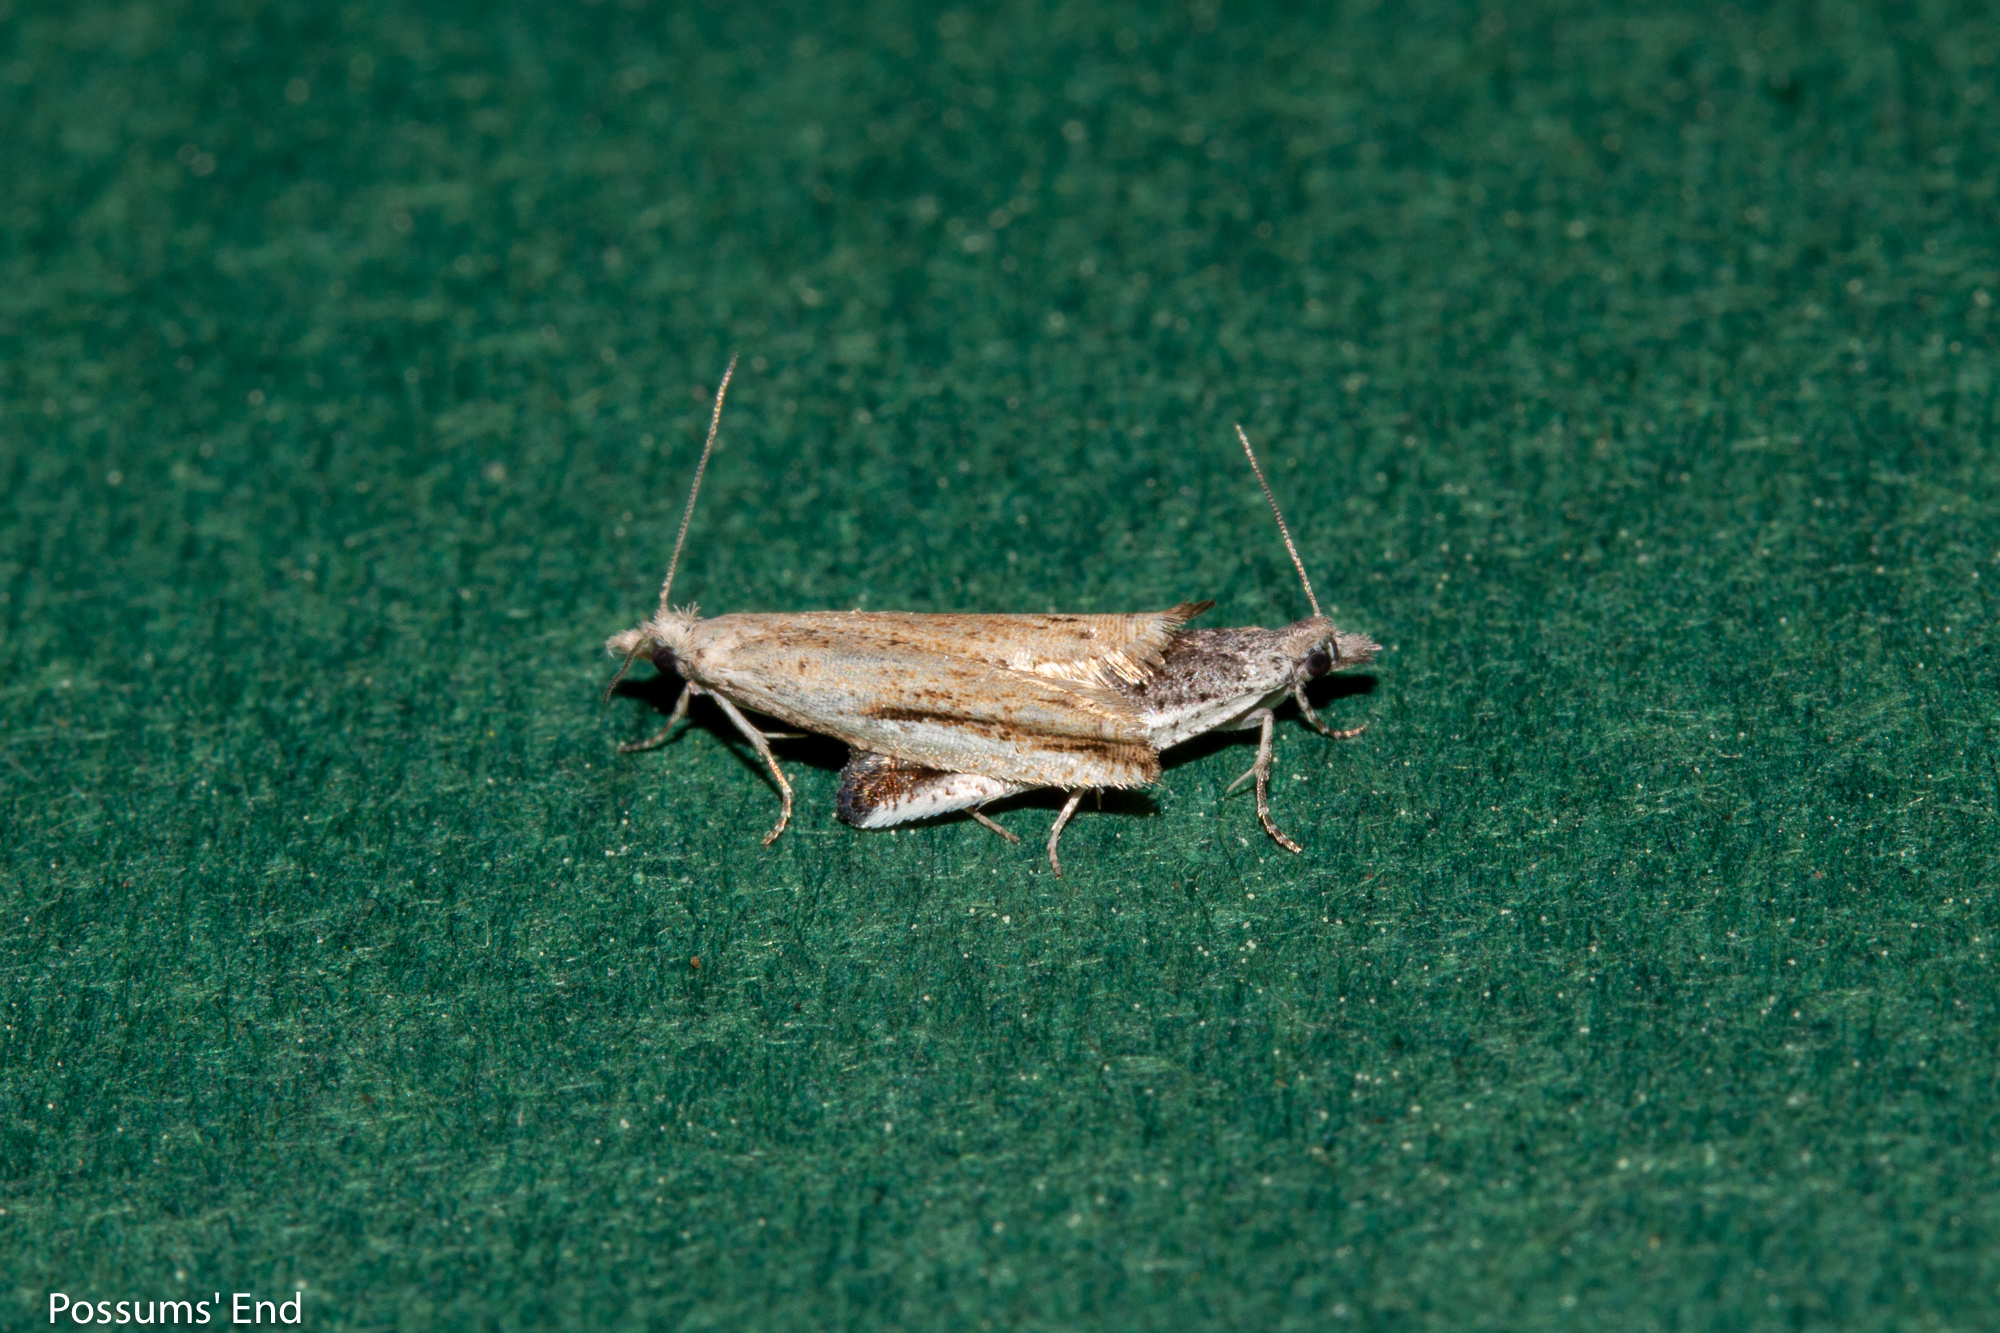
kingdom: Animalia
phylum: Arthropoda
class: Insecta
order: Lepidoptera
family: Tortricidae
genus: Holocola
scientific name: Holocola
